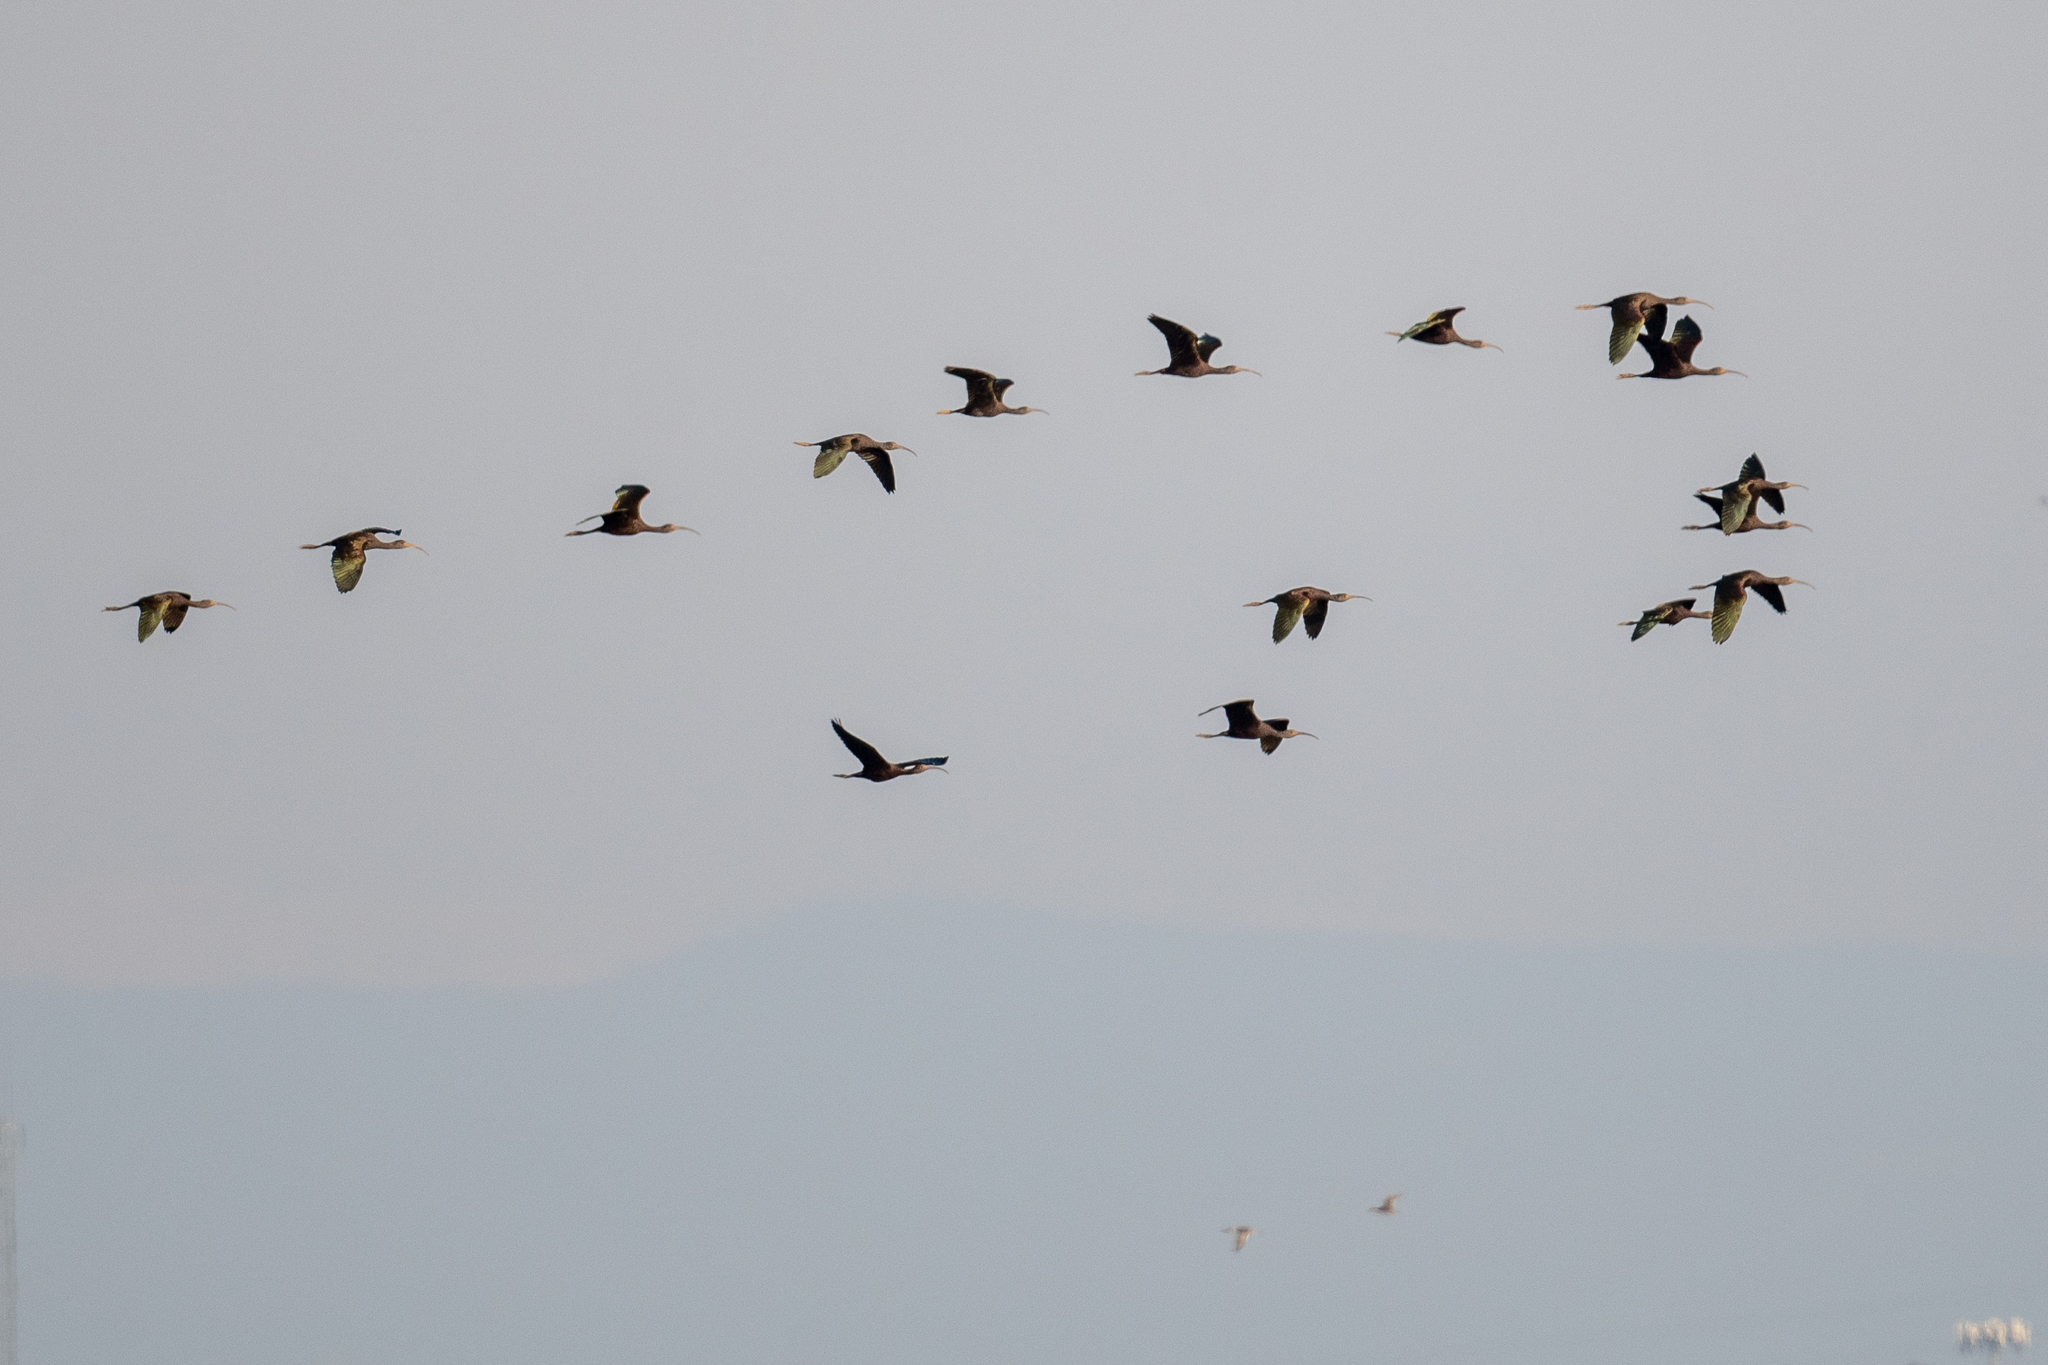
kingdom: Animalia
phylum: Chordata
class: Aves
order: Pelecaniformes
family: Threskiornithidae
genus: Plegadis
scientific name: Plegadis chihi
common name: White-faced ibis
